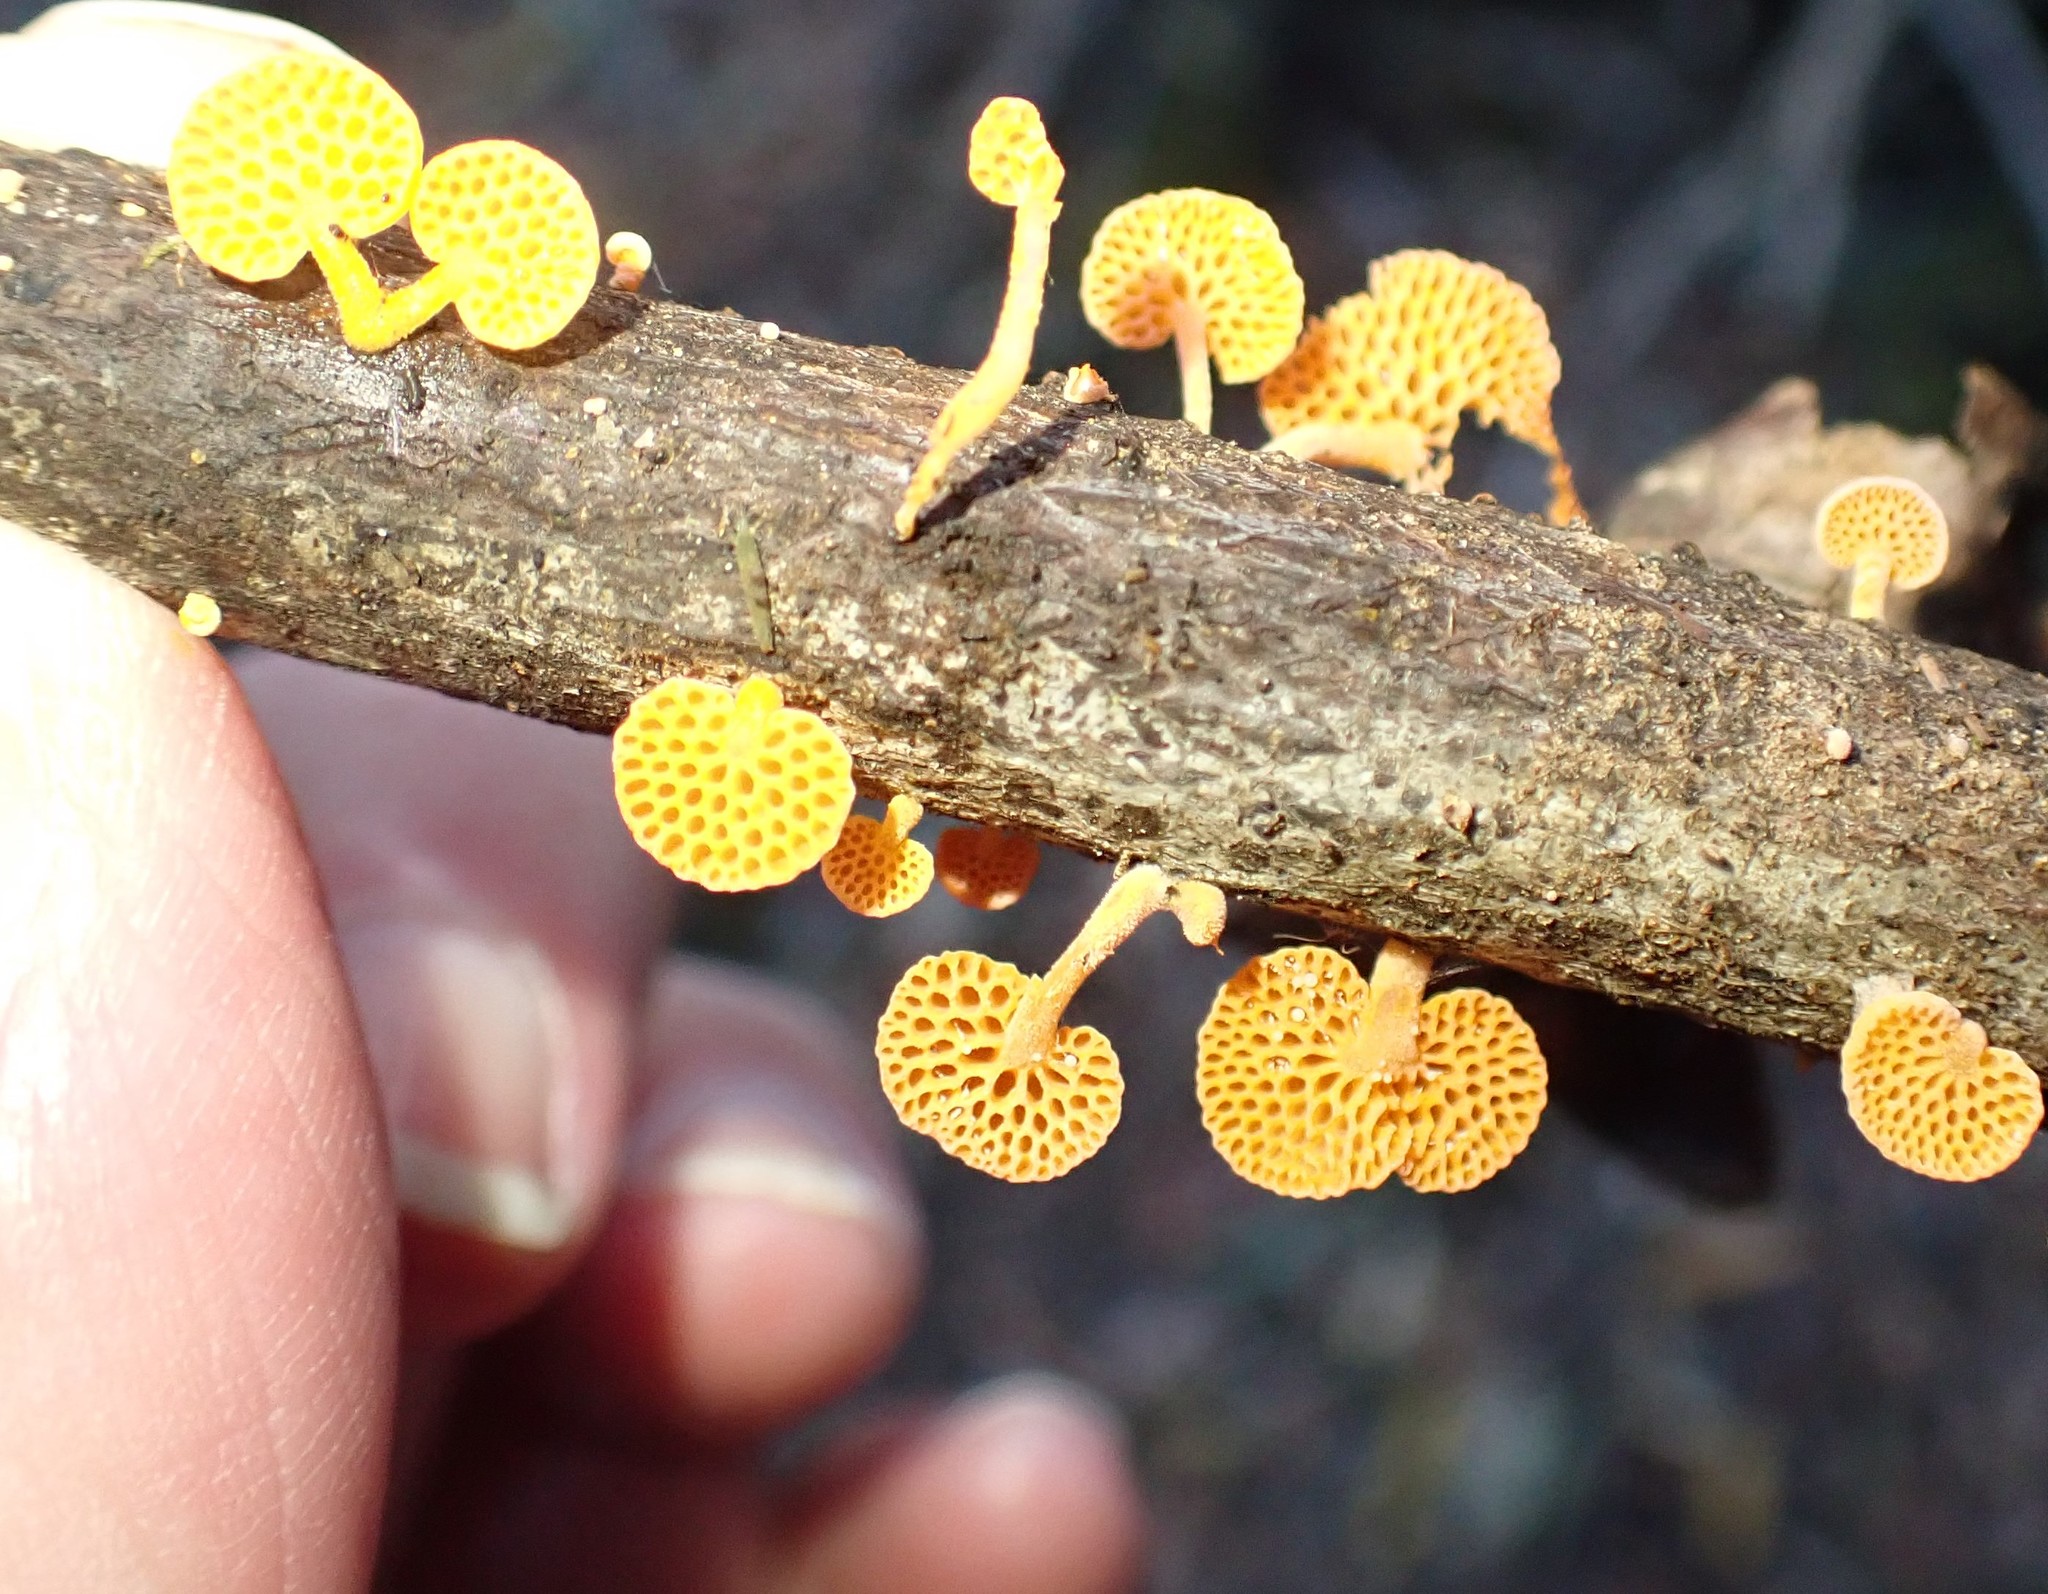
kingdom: Fungi
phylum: Basidiomycota
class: Agaricomycetes
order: Agaricales
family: Mycenaceae
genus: Favolaschia
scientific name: Favolaschia claudopus
